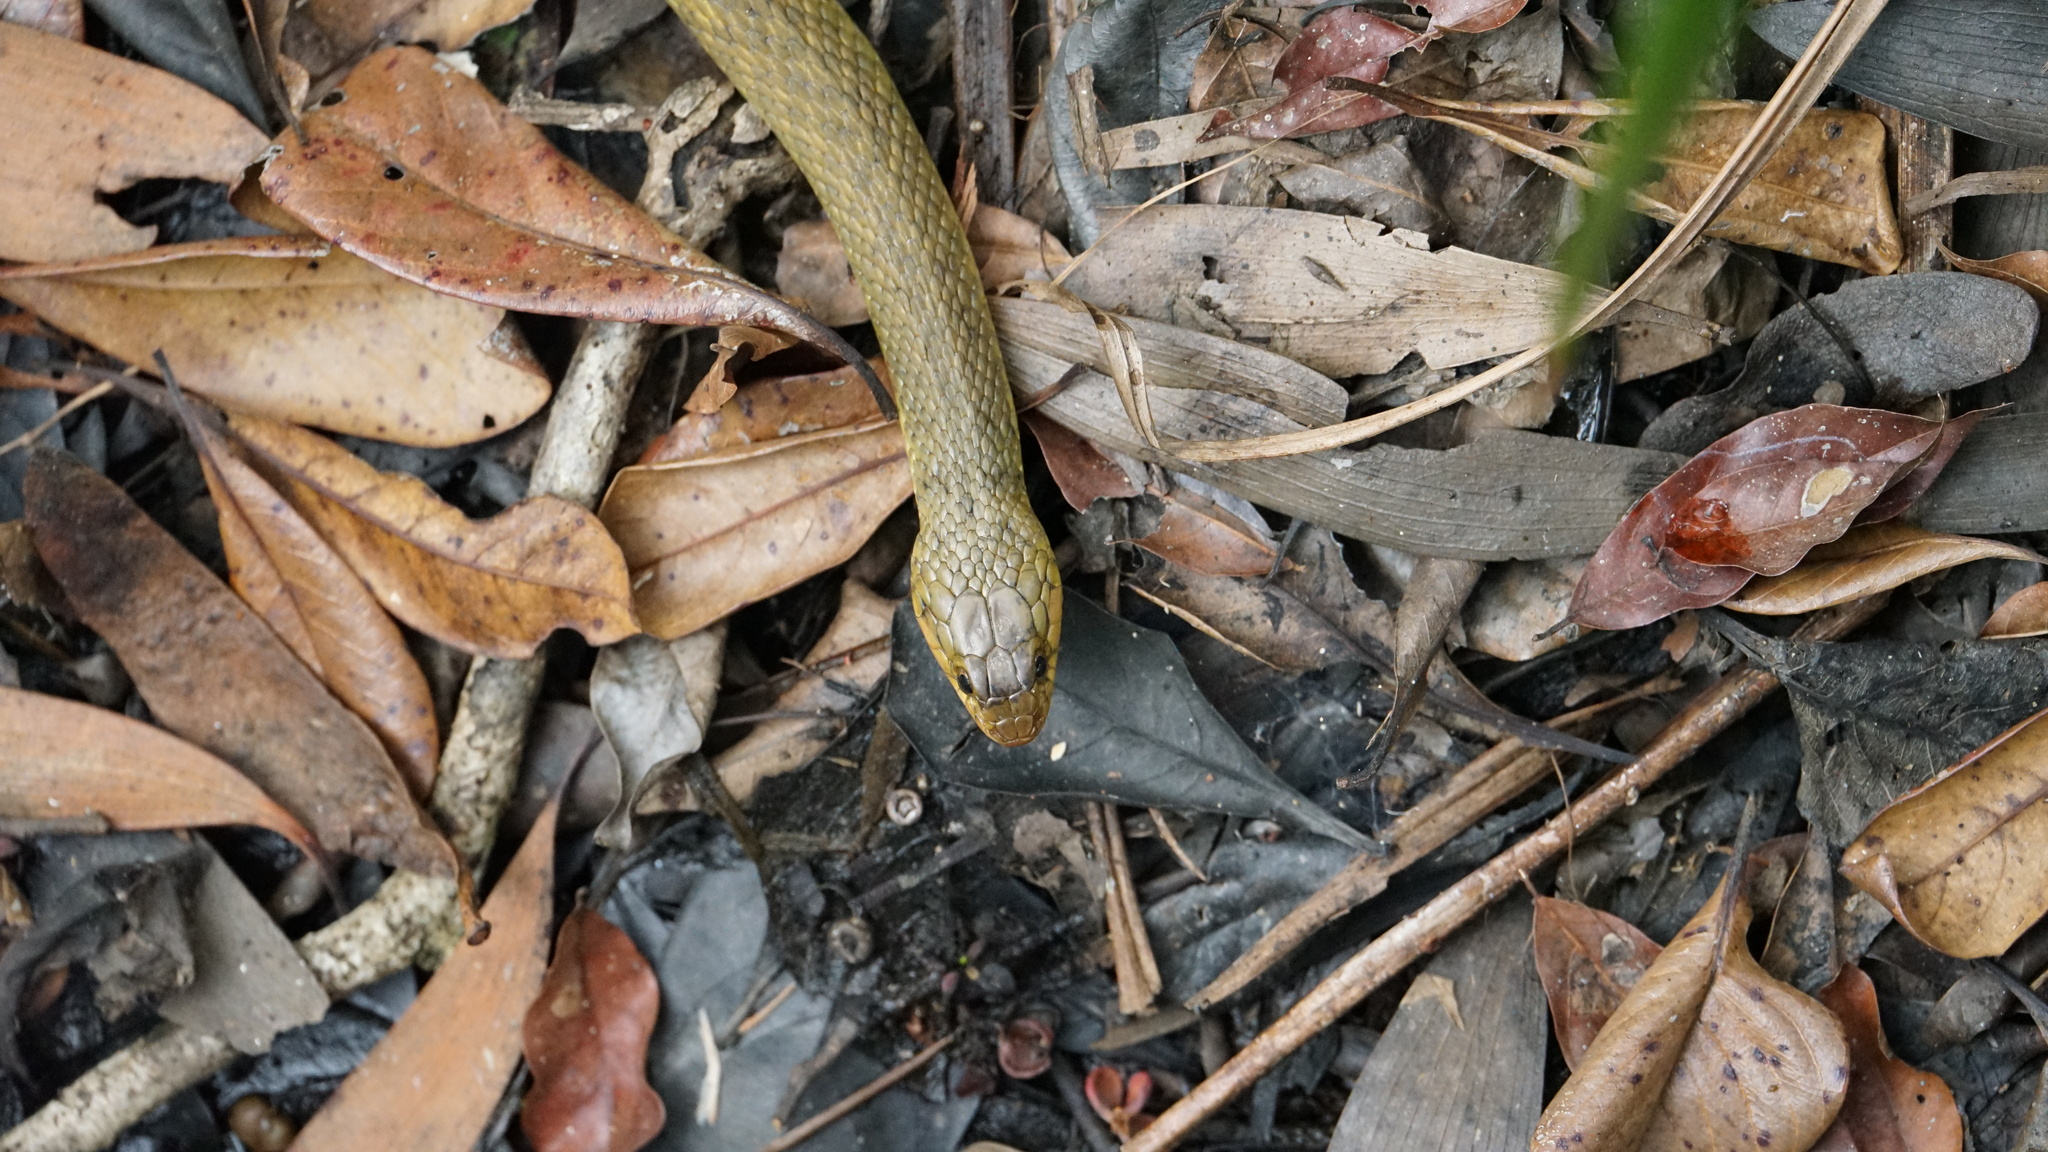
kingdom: Animalia
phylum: Chordata
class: Squamata
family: Colubridae
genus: Tropidonophis
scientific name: Tropidonophis mairii
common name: Common keelback
